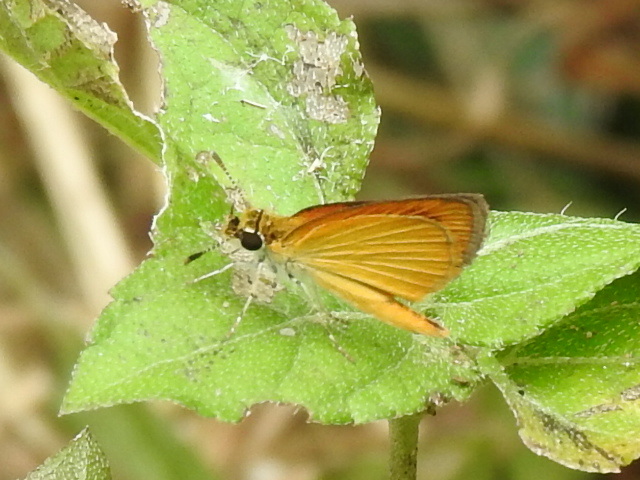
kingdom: Animalia
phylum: Arthropoda
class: Insecta
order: Lepidoptera
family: Hesperiidae
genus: Ancyloxypha
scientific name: Ancyloxypha numitor
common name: Least skipper
